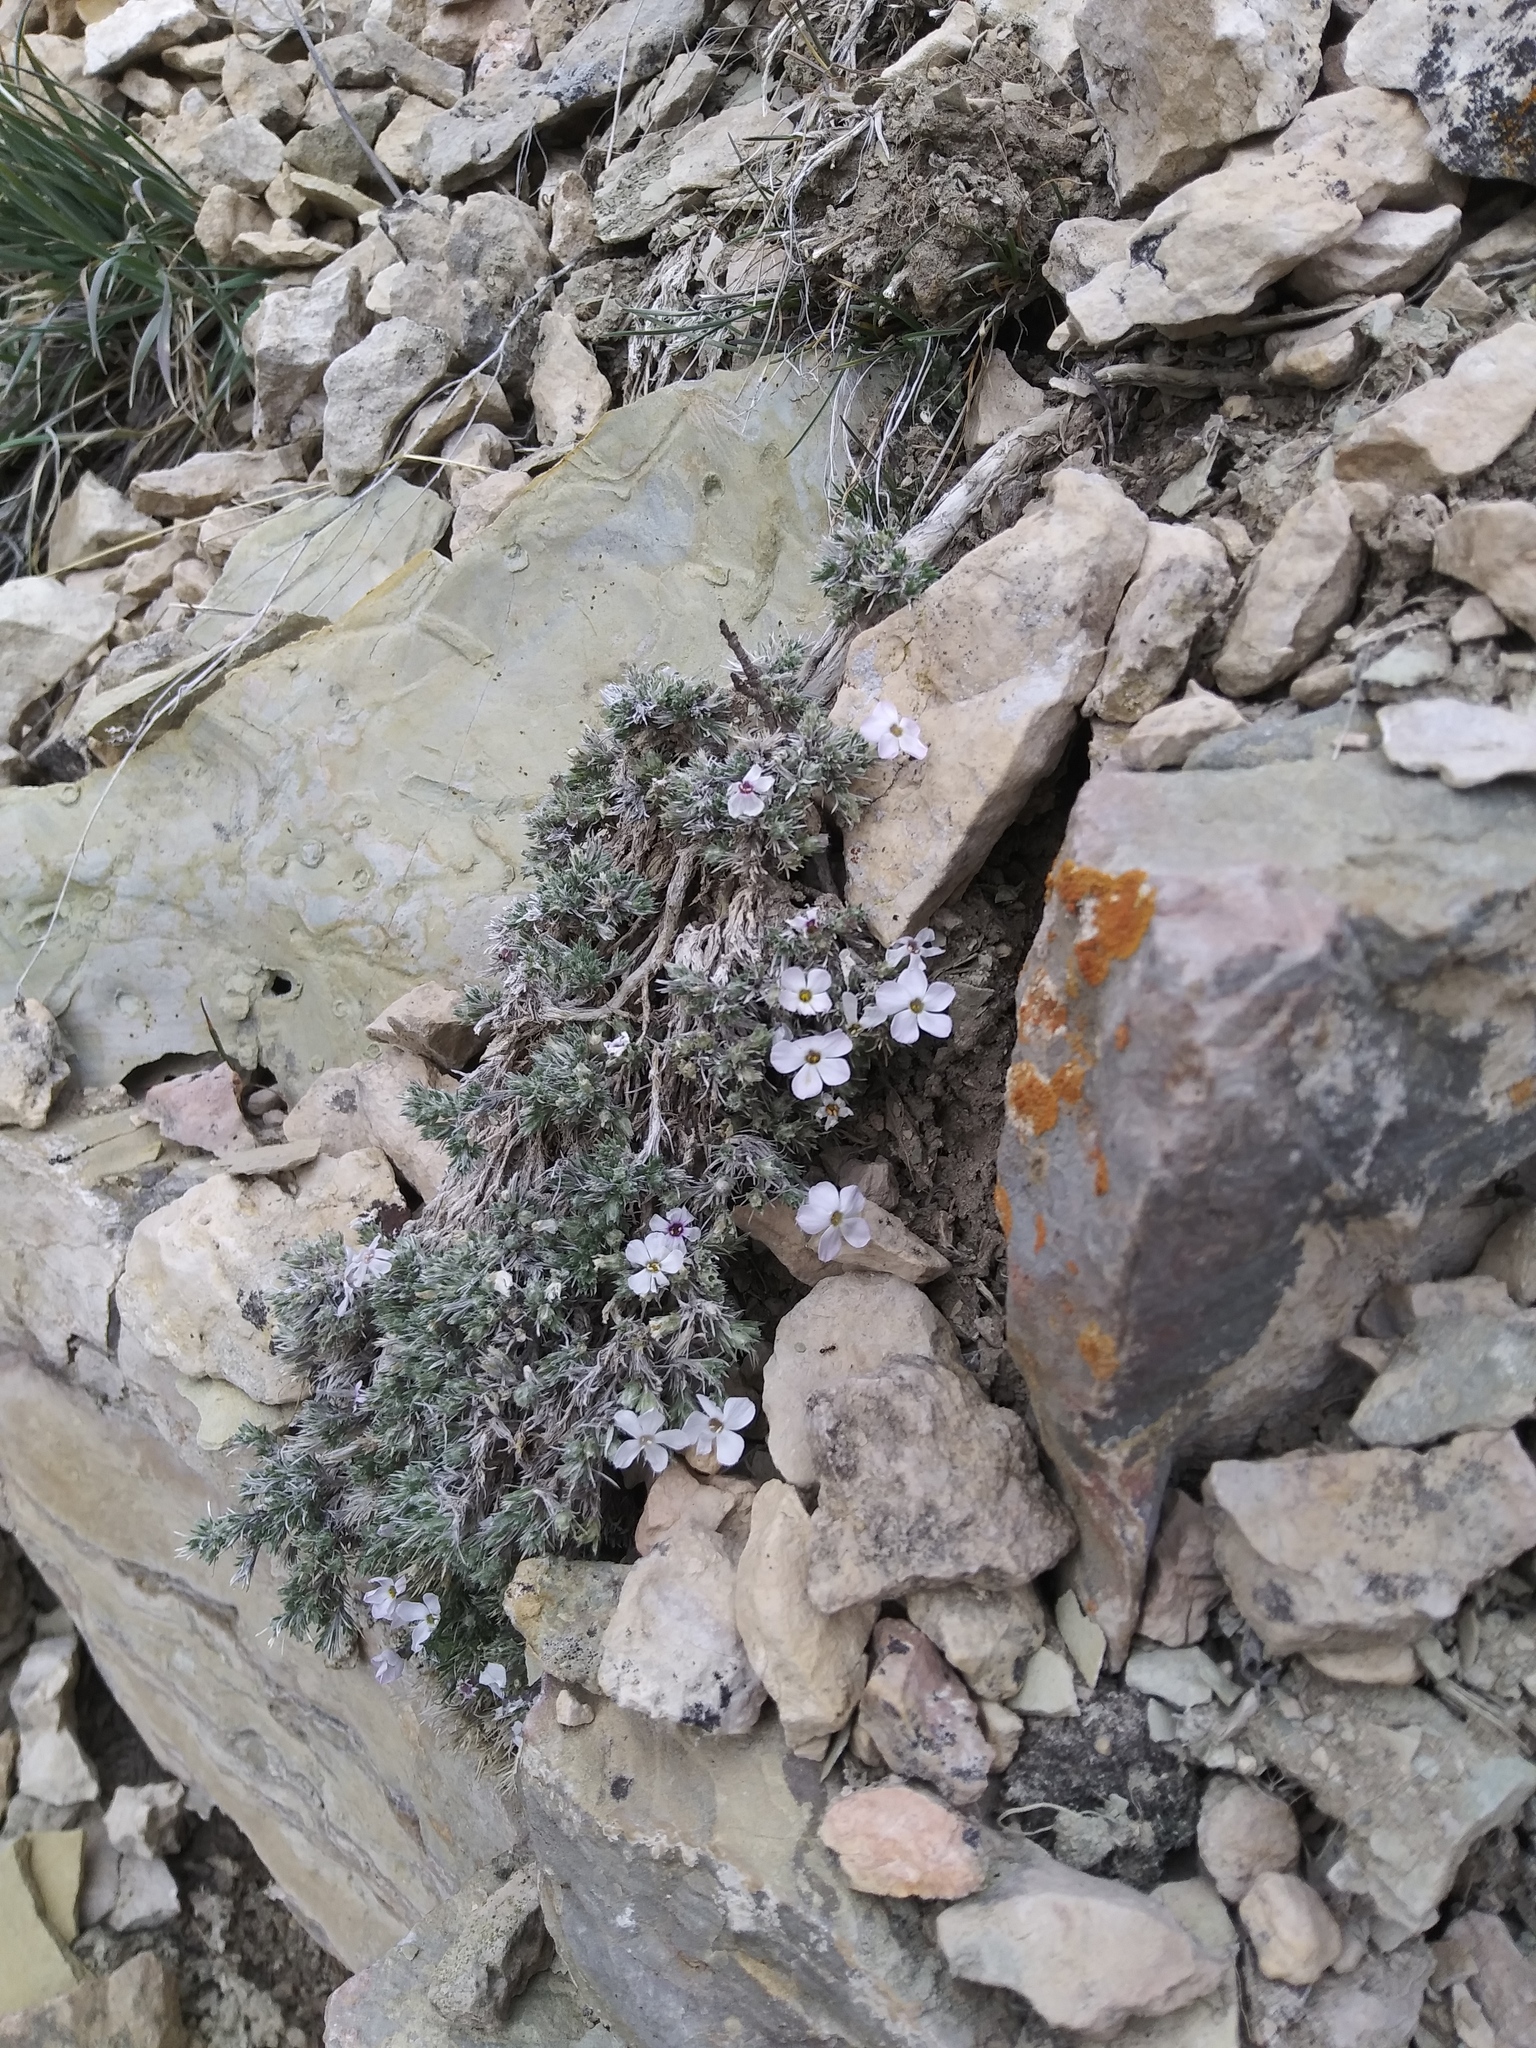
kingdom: Plantae
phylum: Tracheophyta
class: Magnoliopsida
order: Ericales
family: Polemoniaceae
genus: Phlox
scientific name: Phlox hoodii
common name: Moss phlox
